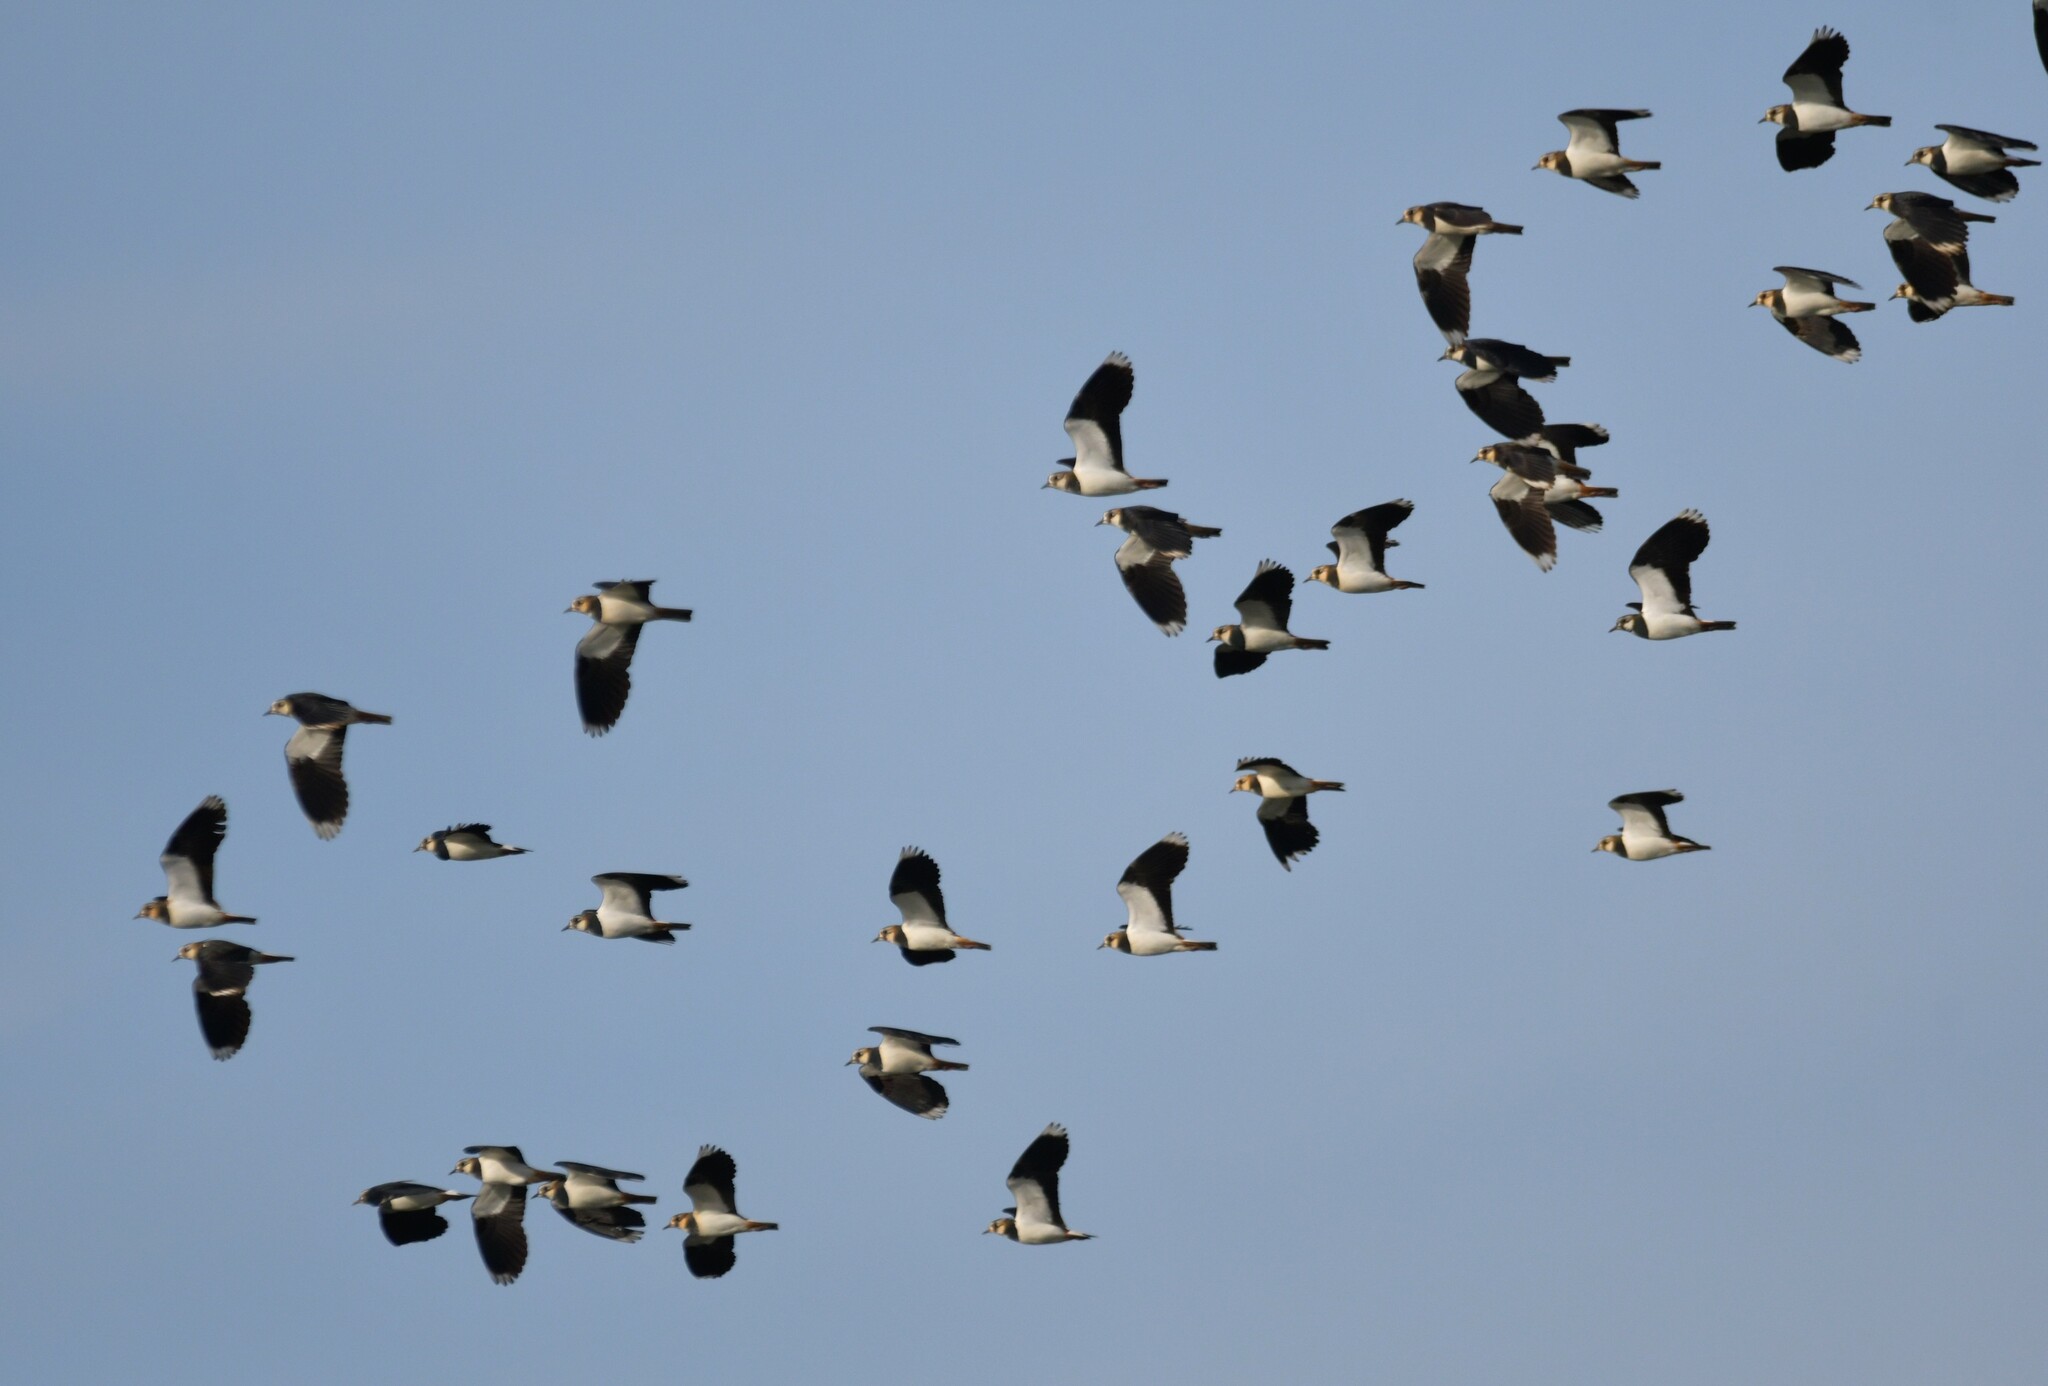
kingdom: Animalia
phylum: Chordata
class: Aves
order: Charadriiformes
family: Charadriidae
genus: Vanellus
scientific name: Vanellus vanellus
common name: Northern lapwing
